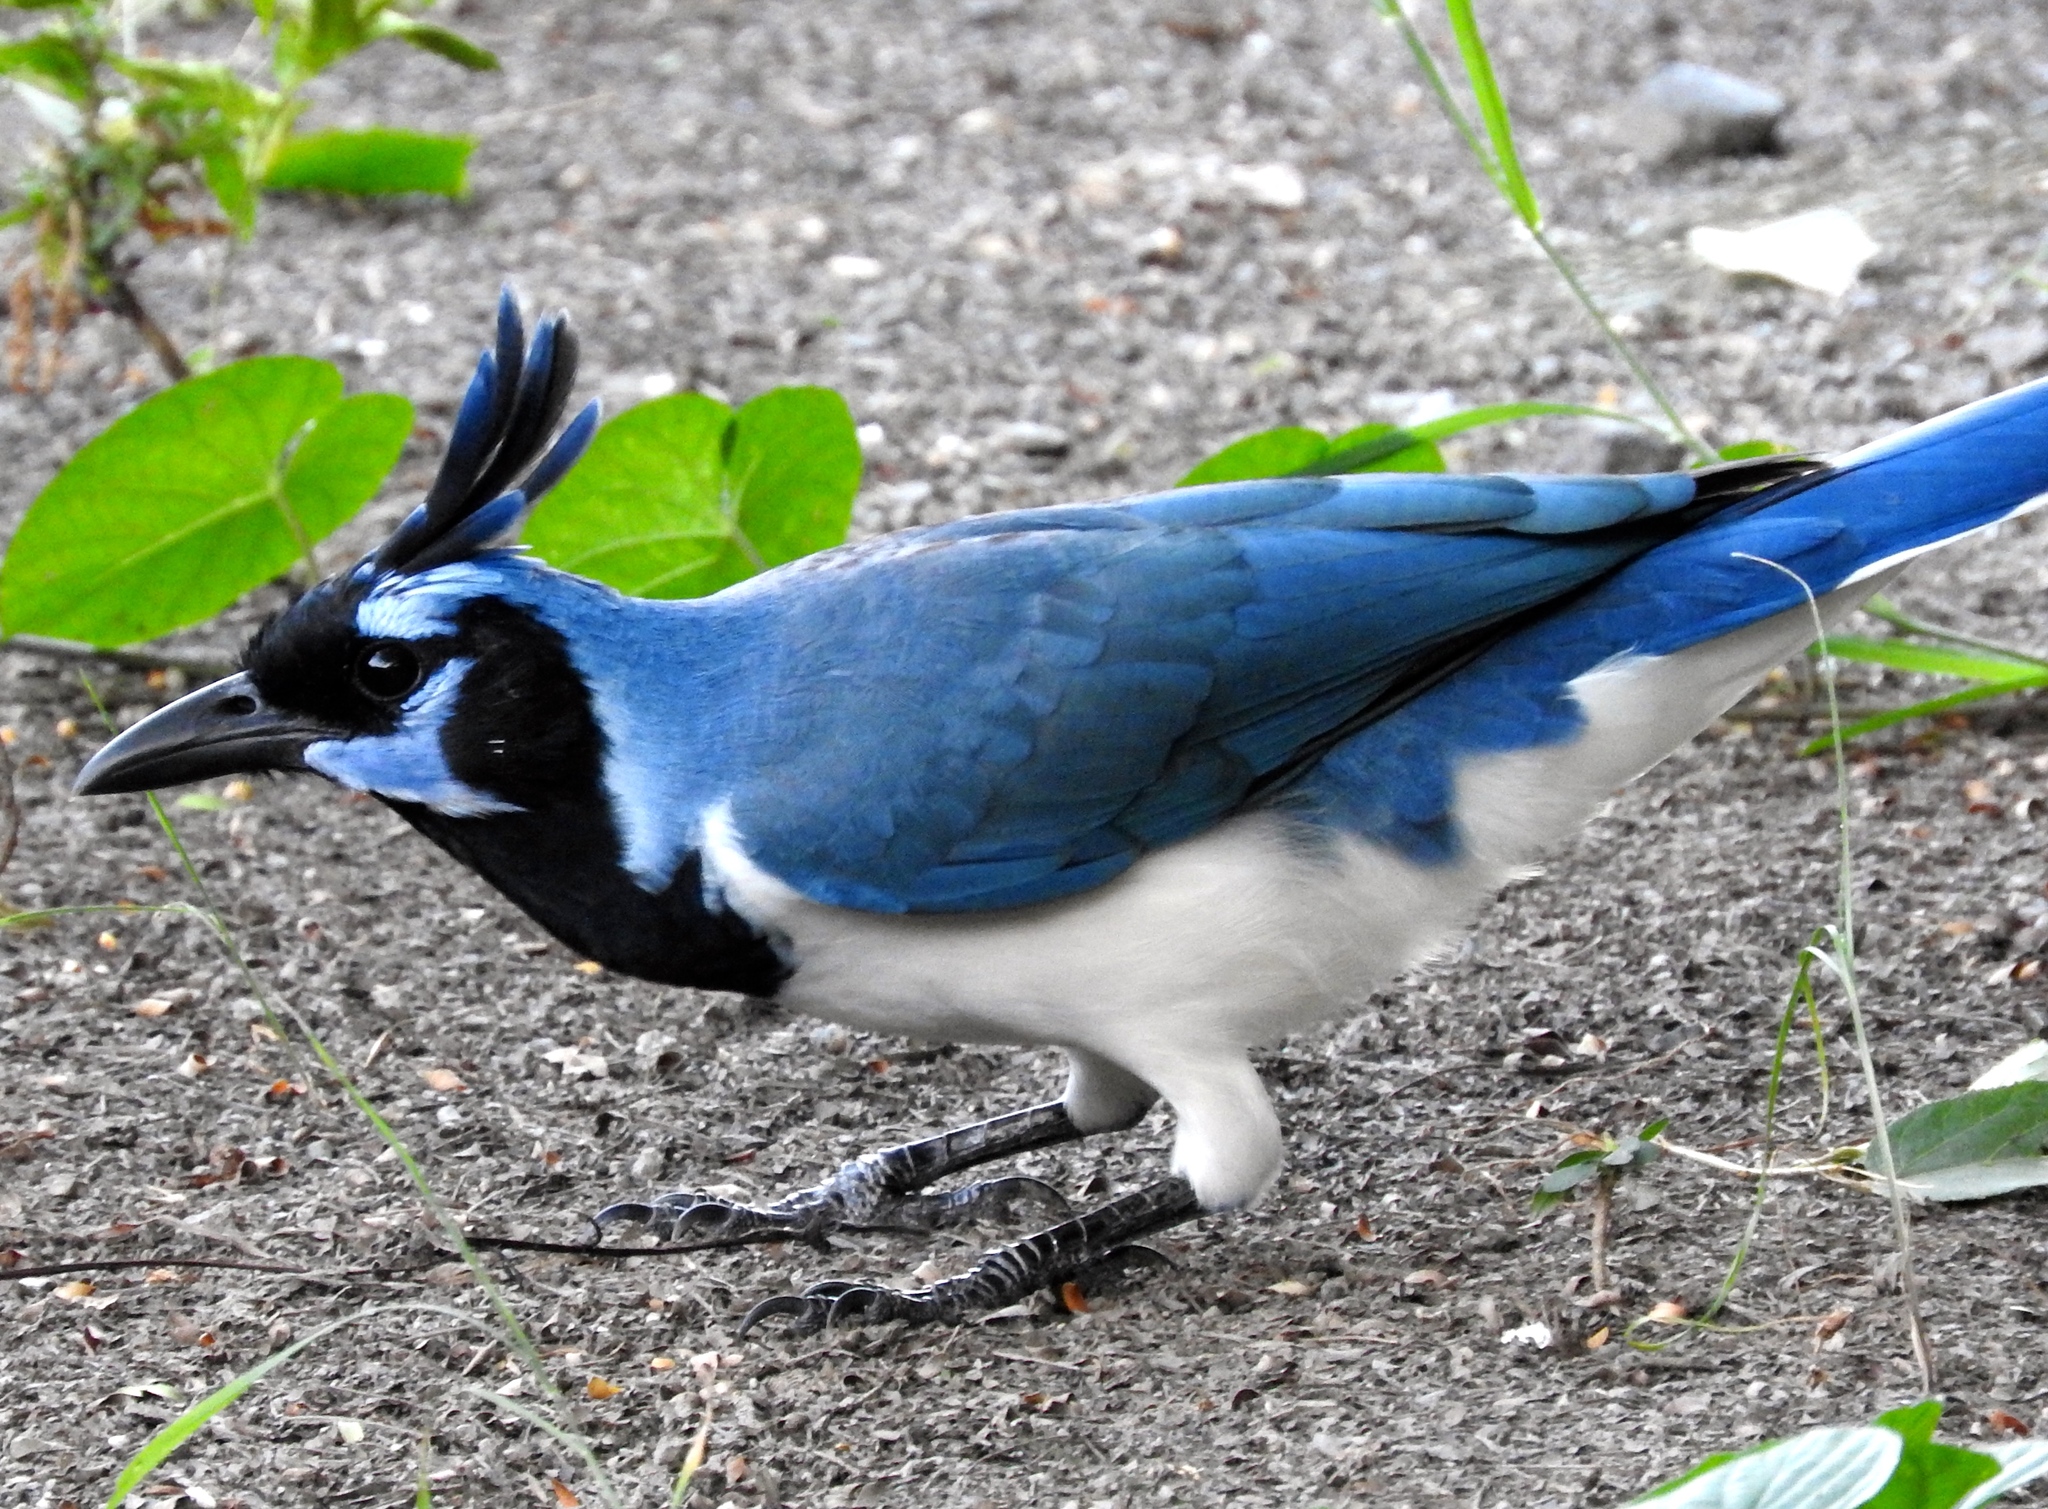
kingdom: Animalia
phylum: Chordata
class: Aves
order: Passeriformes
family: Corvidae
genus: Calocitta
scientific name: Calocitta colliei
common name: Black-throated magpie-jay
